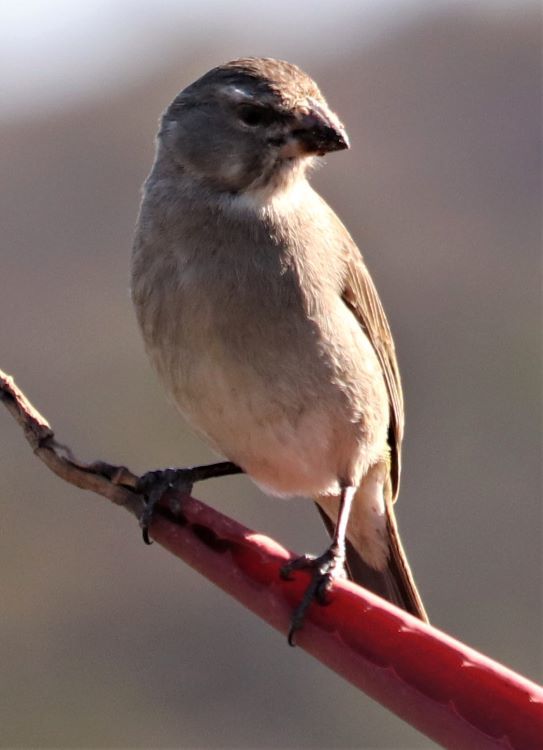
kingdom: Animalia
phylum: Chordata
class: Aves
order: Passeriformes
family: Fringillidae
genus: Crithagra
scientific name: Crithagra albogularis
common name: White-throated canary
